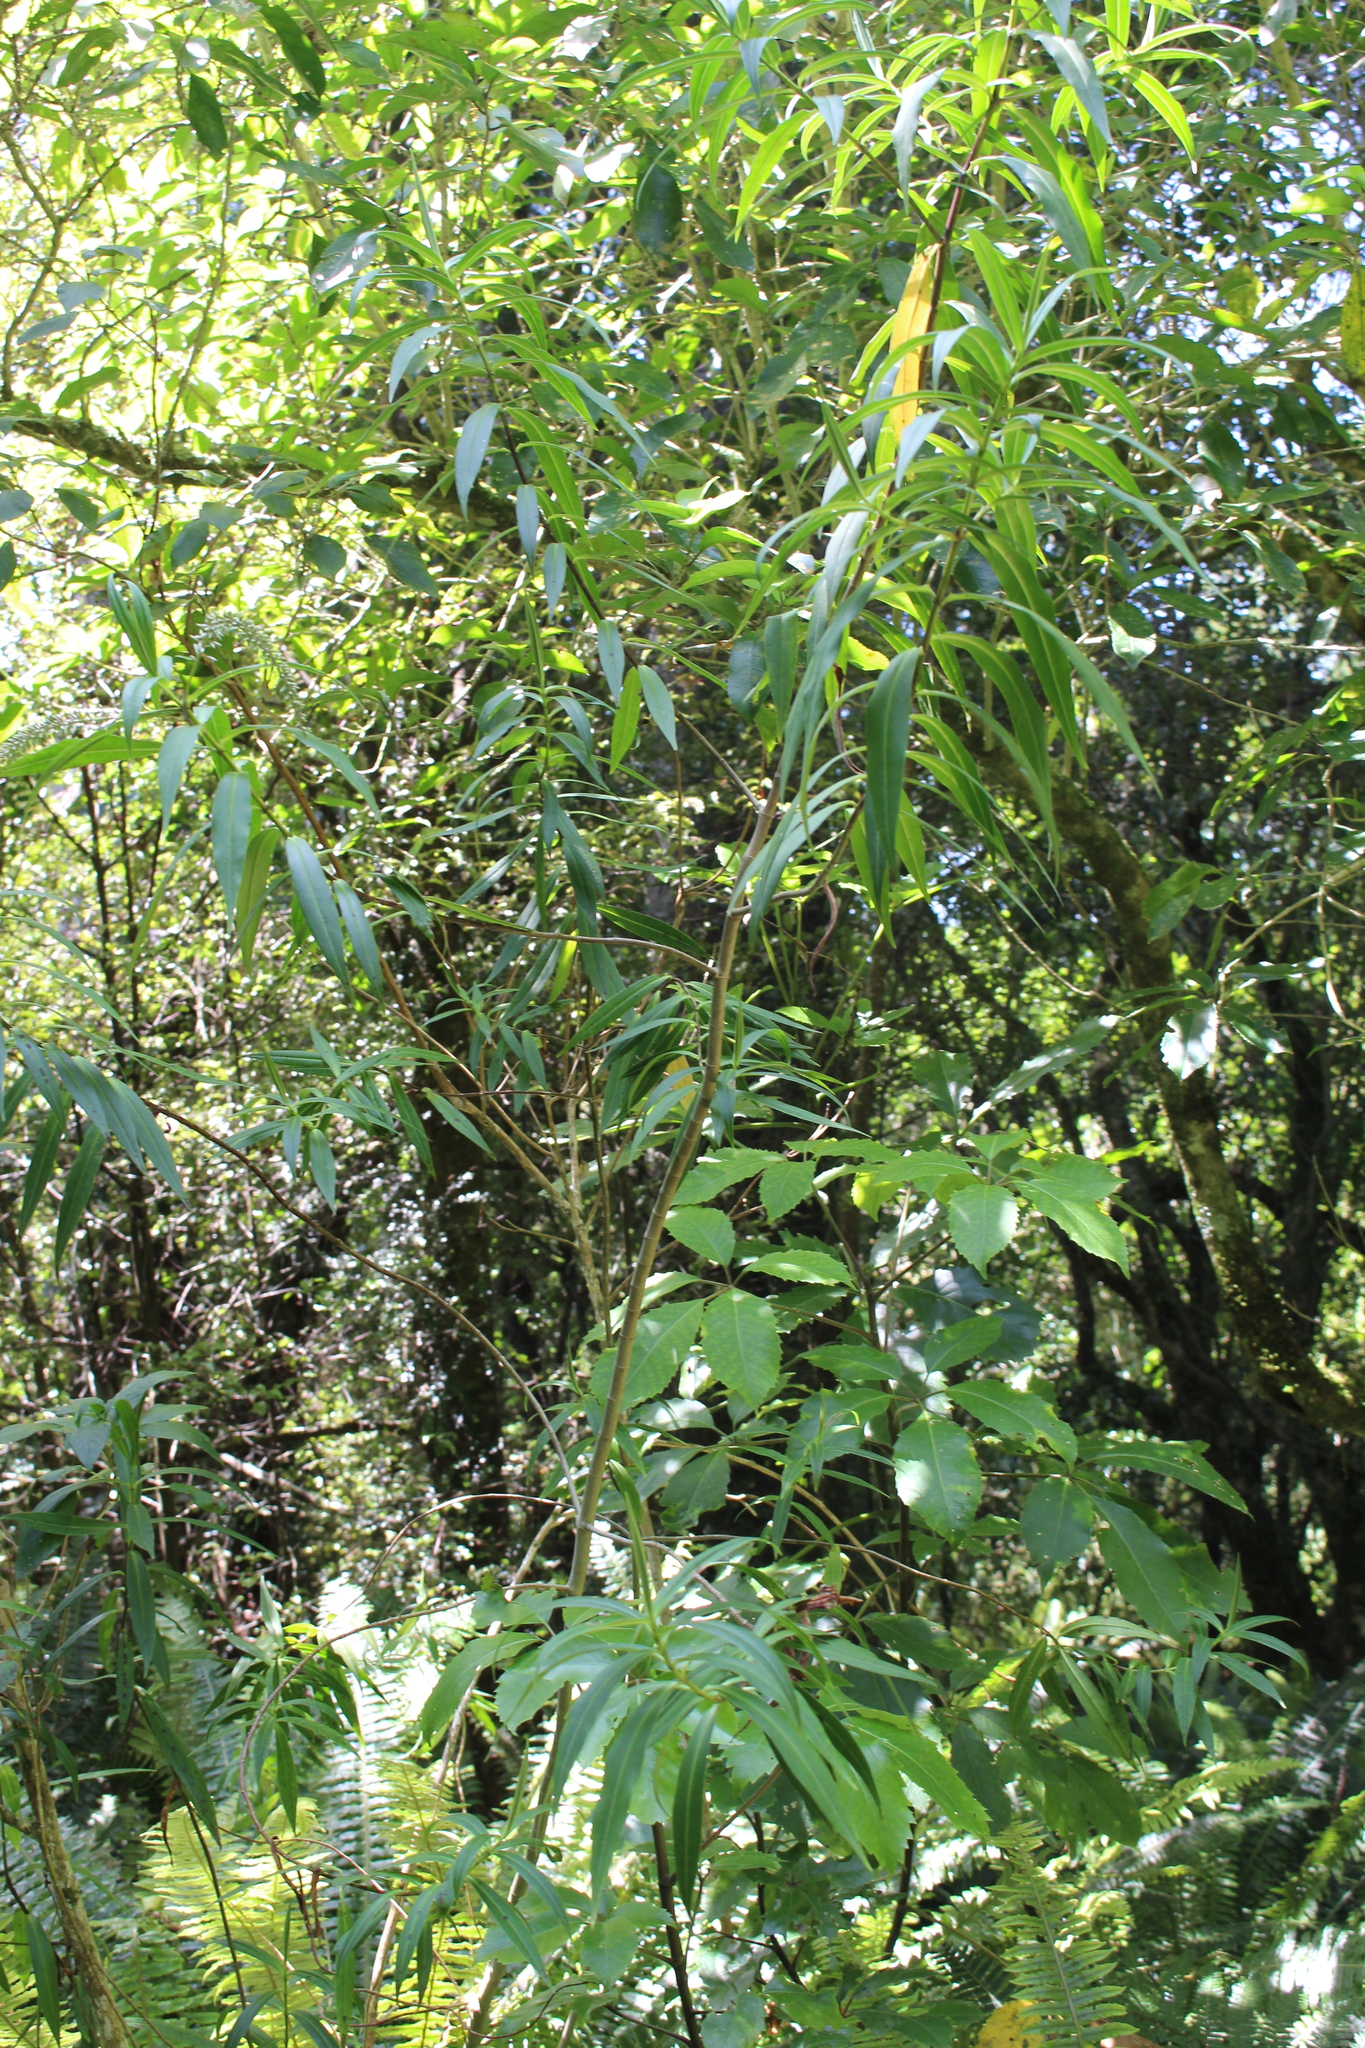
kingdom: Plantae
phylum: Tracheophyta
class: Magnoliopsida
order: Lamiales
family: Plantaginaceae
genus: Veronica
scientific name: Veronica salicifolia
